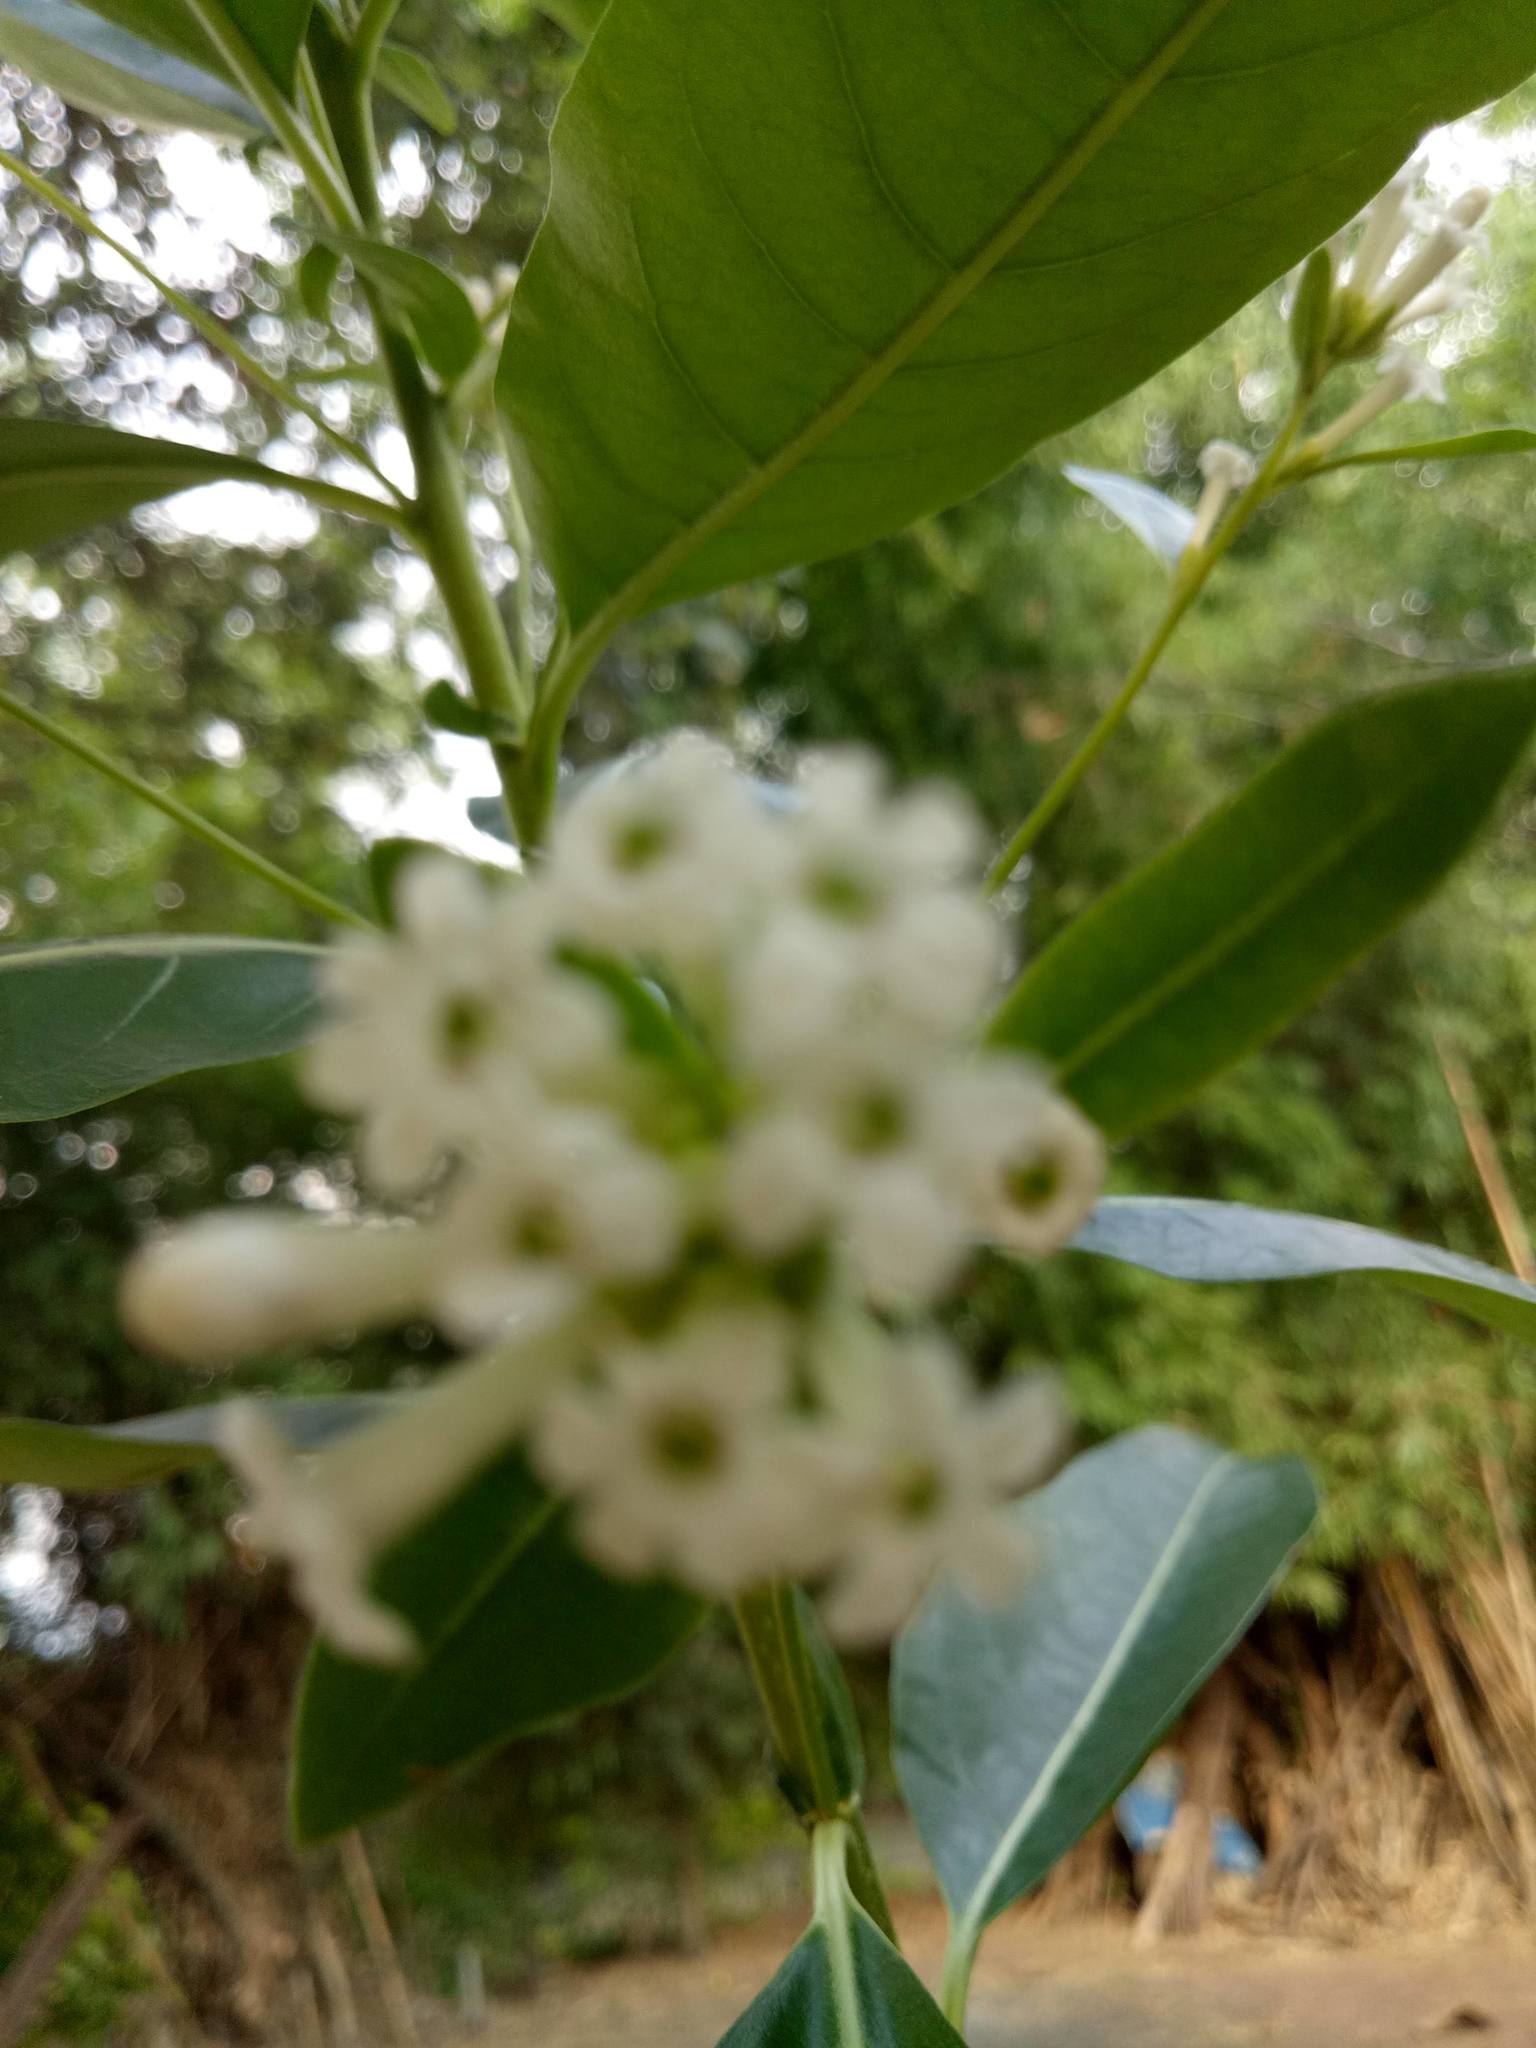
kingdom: Plantae
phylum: Tracheophyta
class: Magnoliopsida
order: Solanales
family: Solanaceae
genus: Cestrum
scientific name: Cestrum diurnum
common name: Day jessamine
